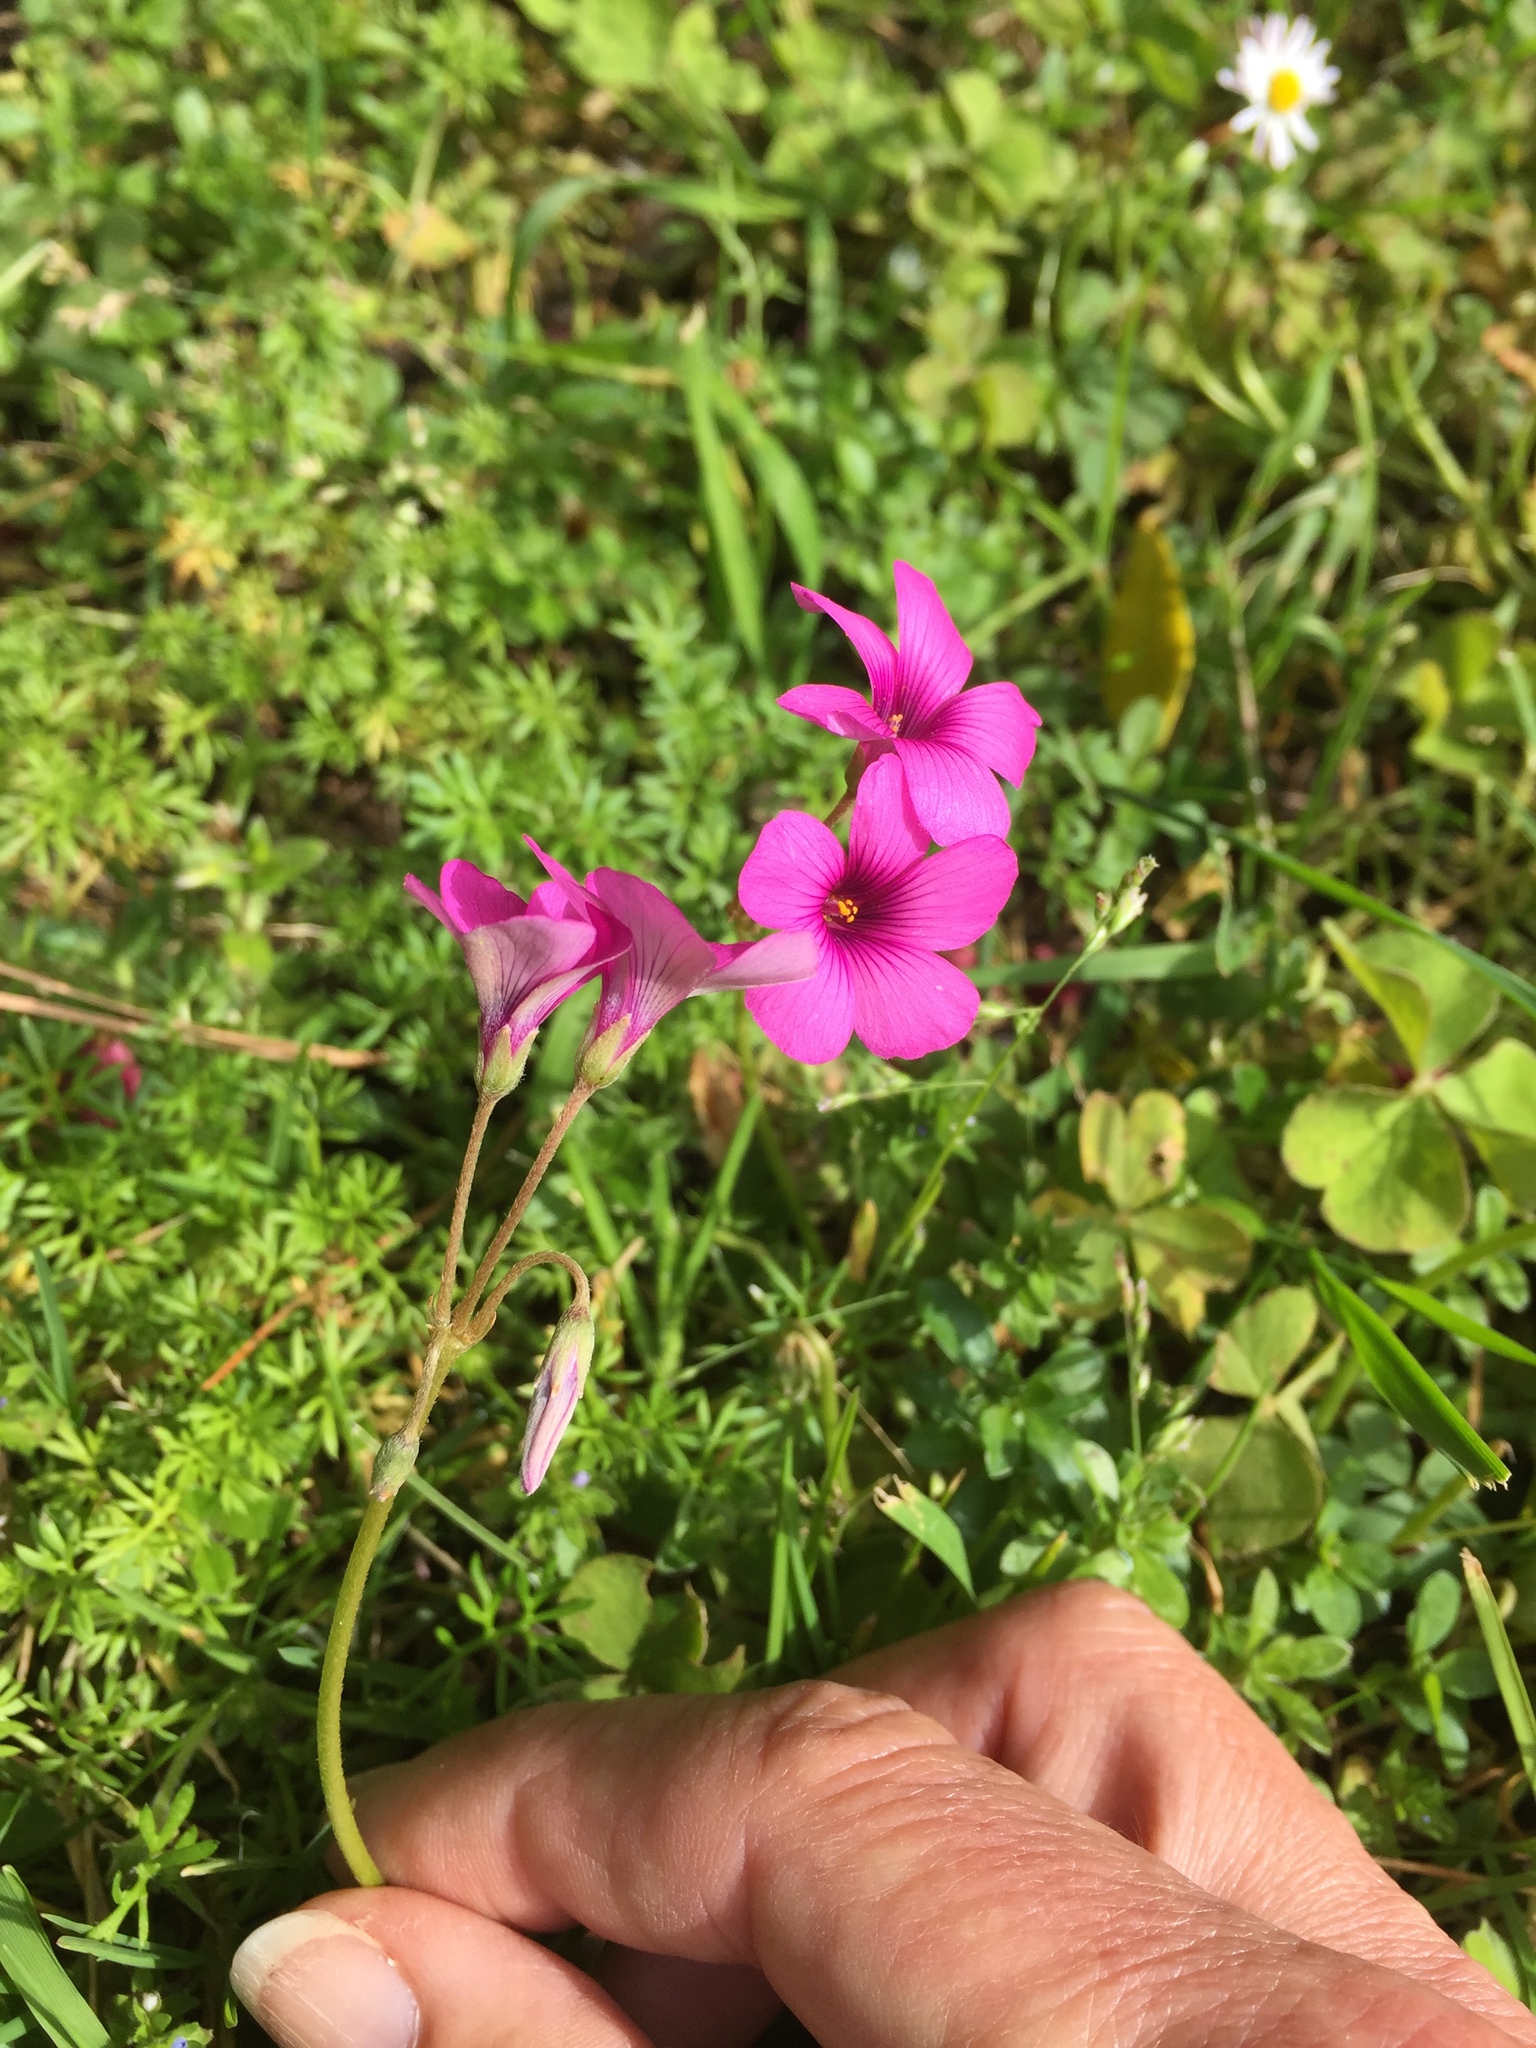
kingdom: Plantae
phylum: Tracheophyta
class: Magnoliopsida
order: Oxalidales
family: Oxalidaceae
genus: Oxalis
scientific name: Oxalis articulata
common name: Pink-sorrel
